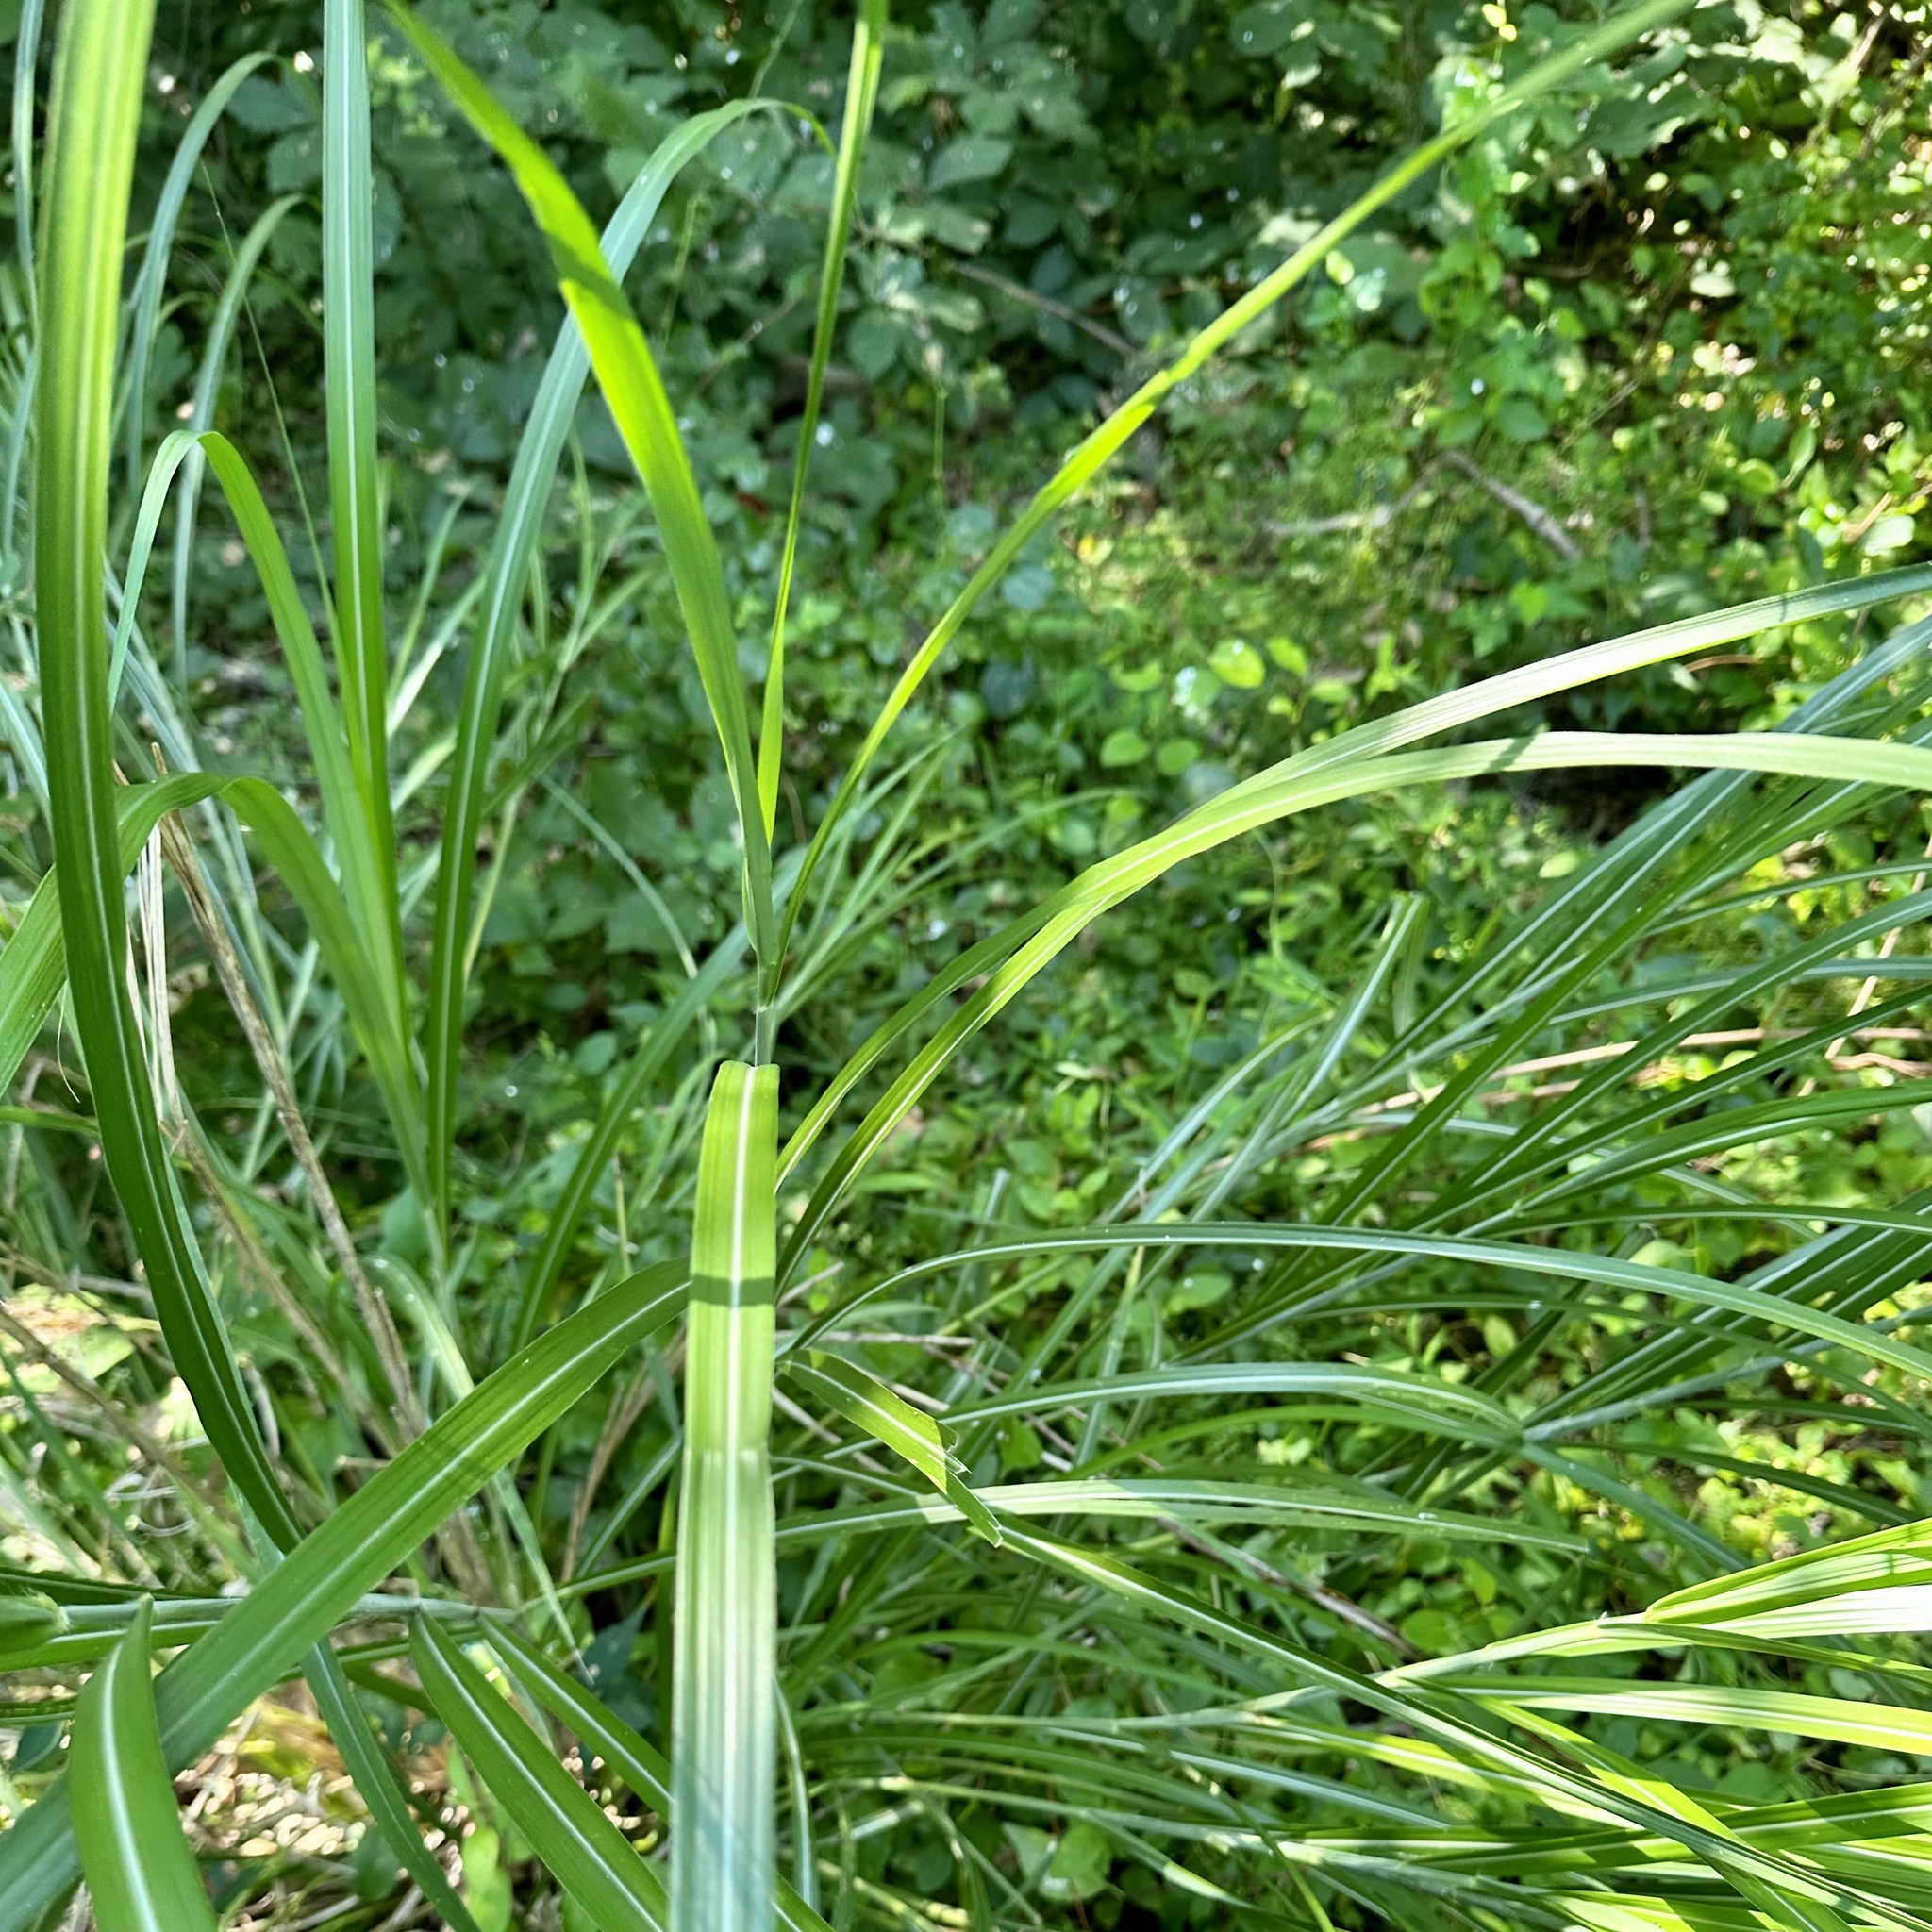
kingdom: Plantae
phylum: Tracheophyta
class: Liliopsida
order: Poales
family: Poaceae
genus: Miscanthus
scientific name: Miscanthus sinensis
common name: Chinese silvergrass
